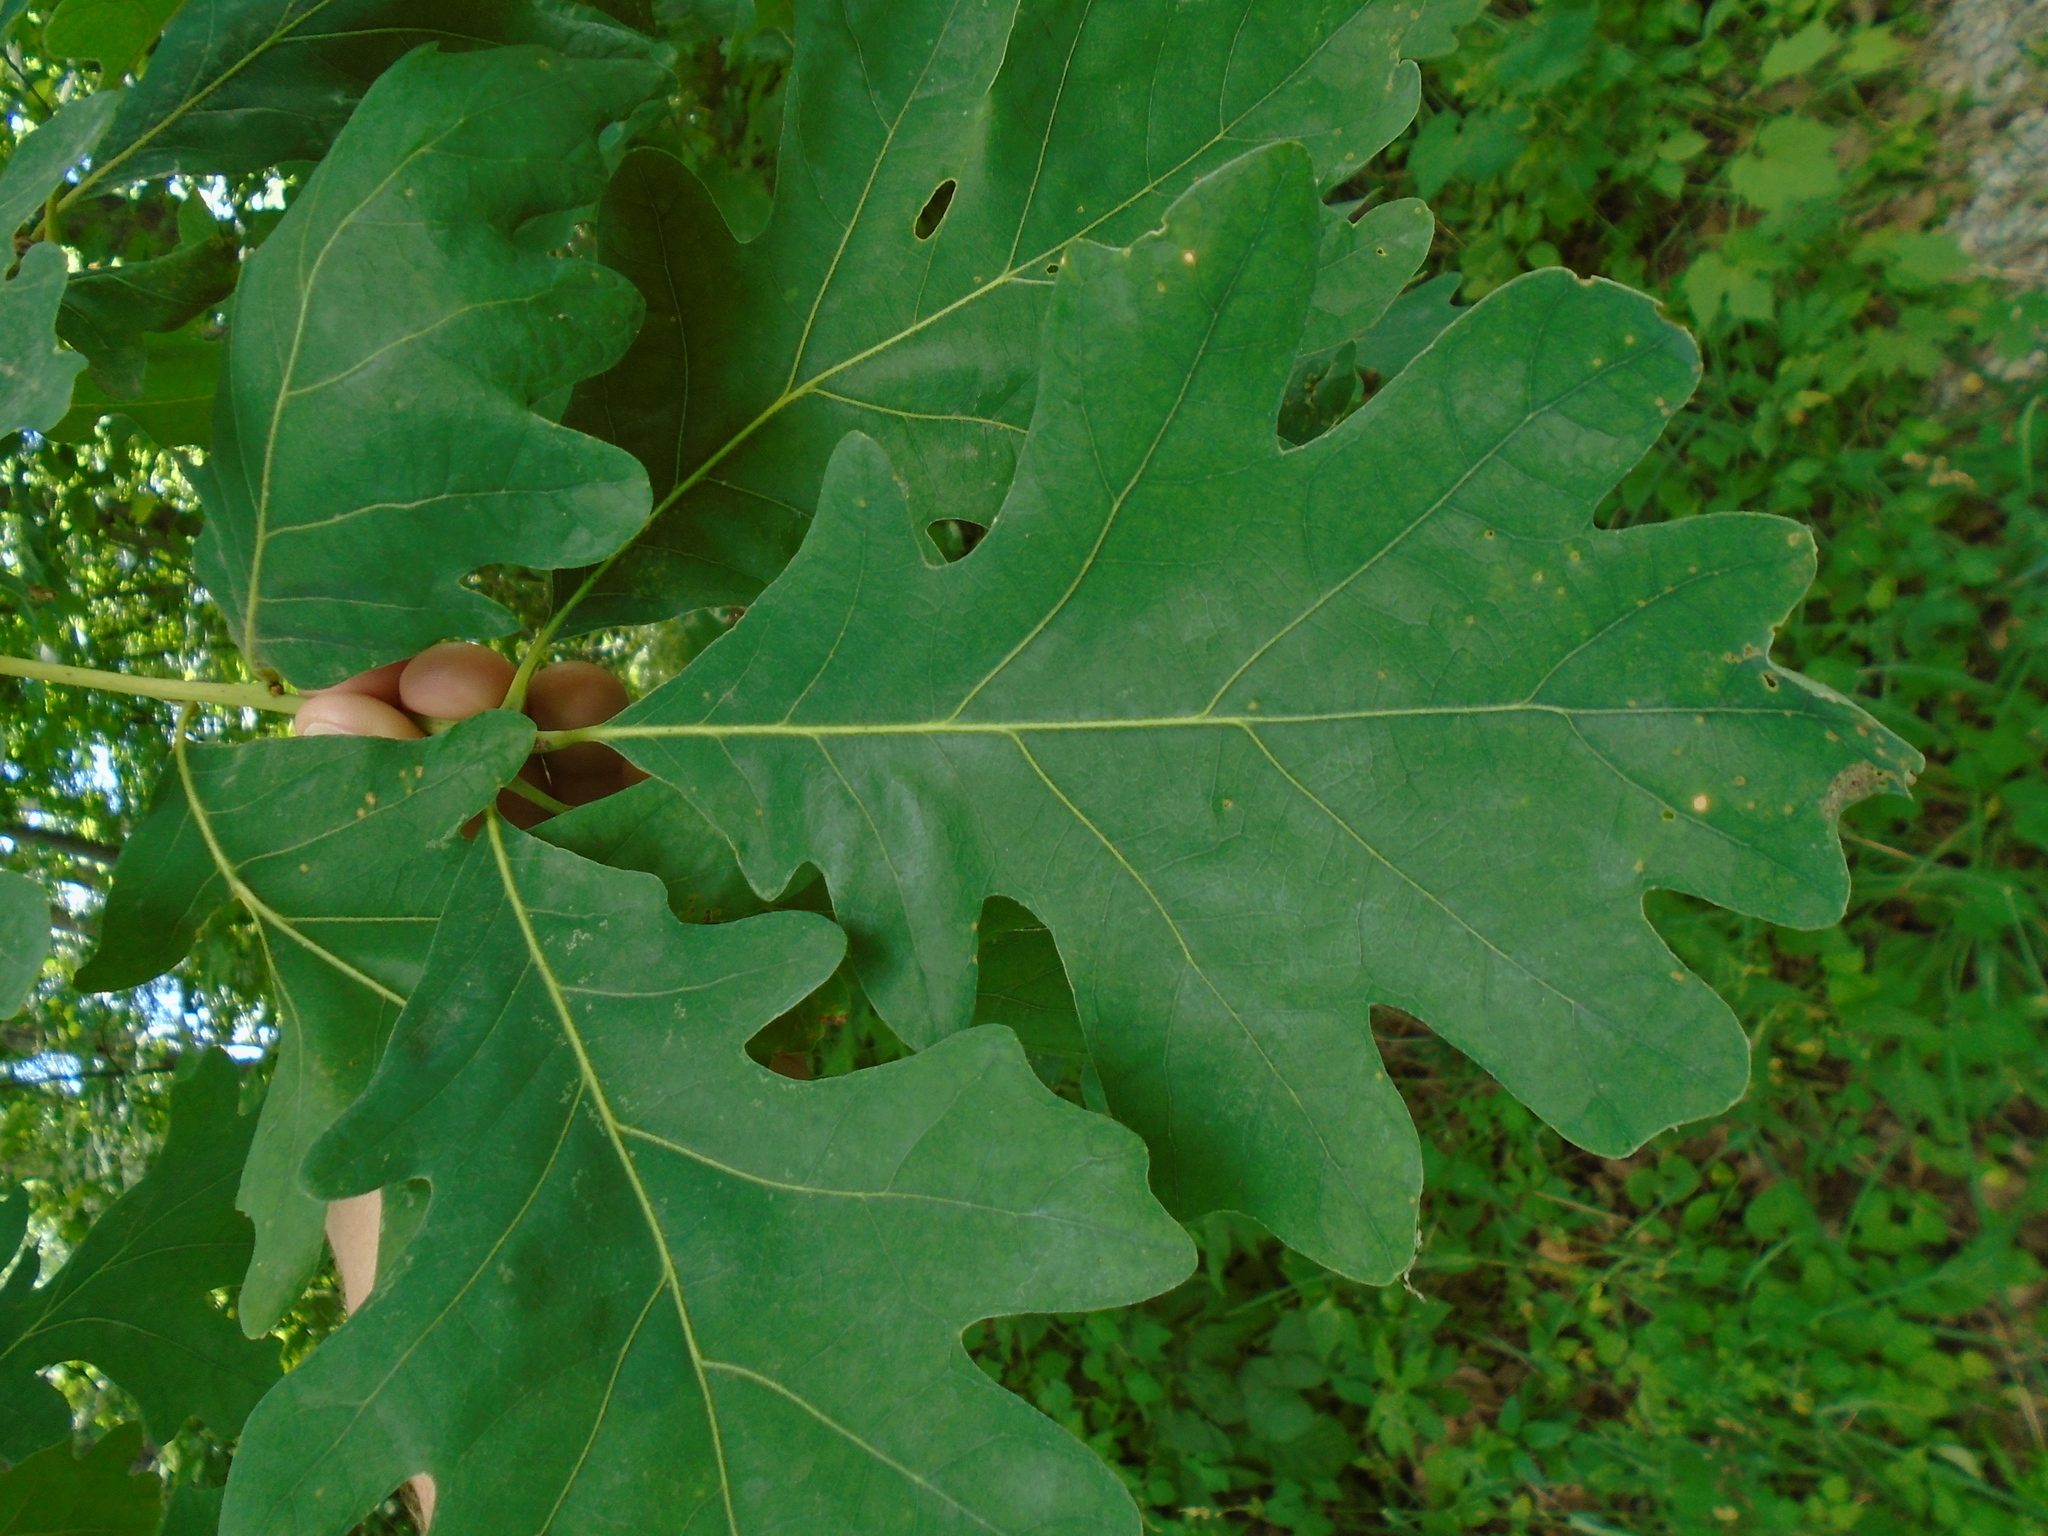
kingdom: Plantae
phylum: Tracheophyta
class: Magnoliopsida
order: Fagales
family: Fagaceae
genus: Quercus
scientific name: Quercus alba
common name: White oak
